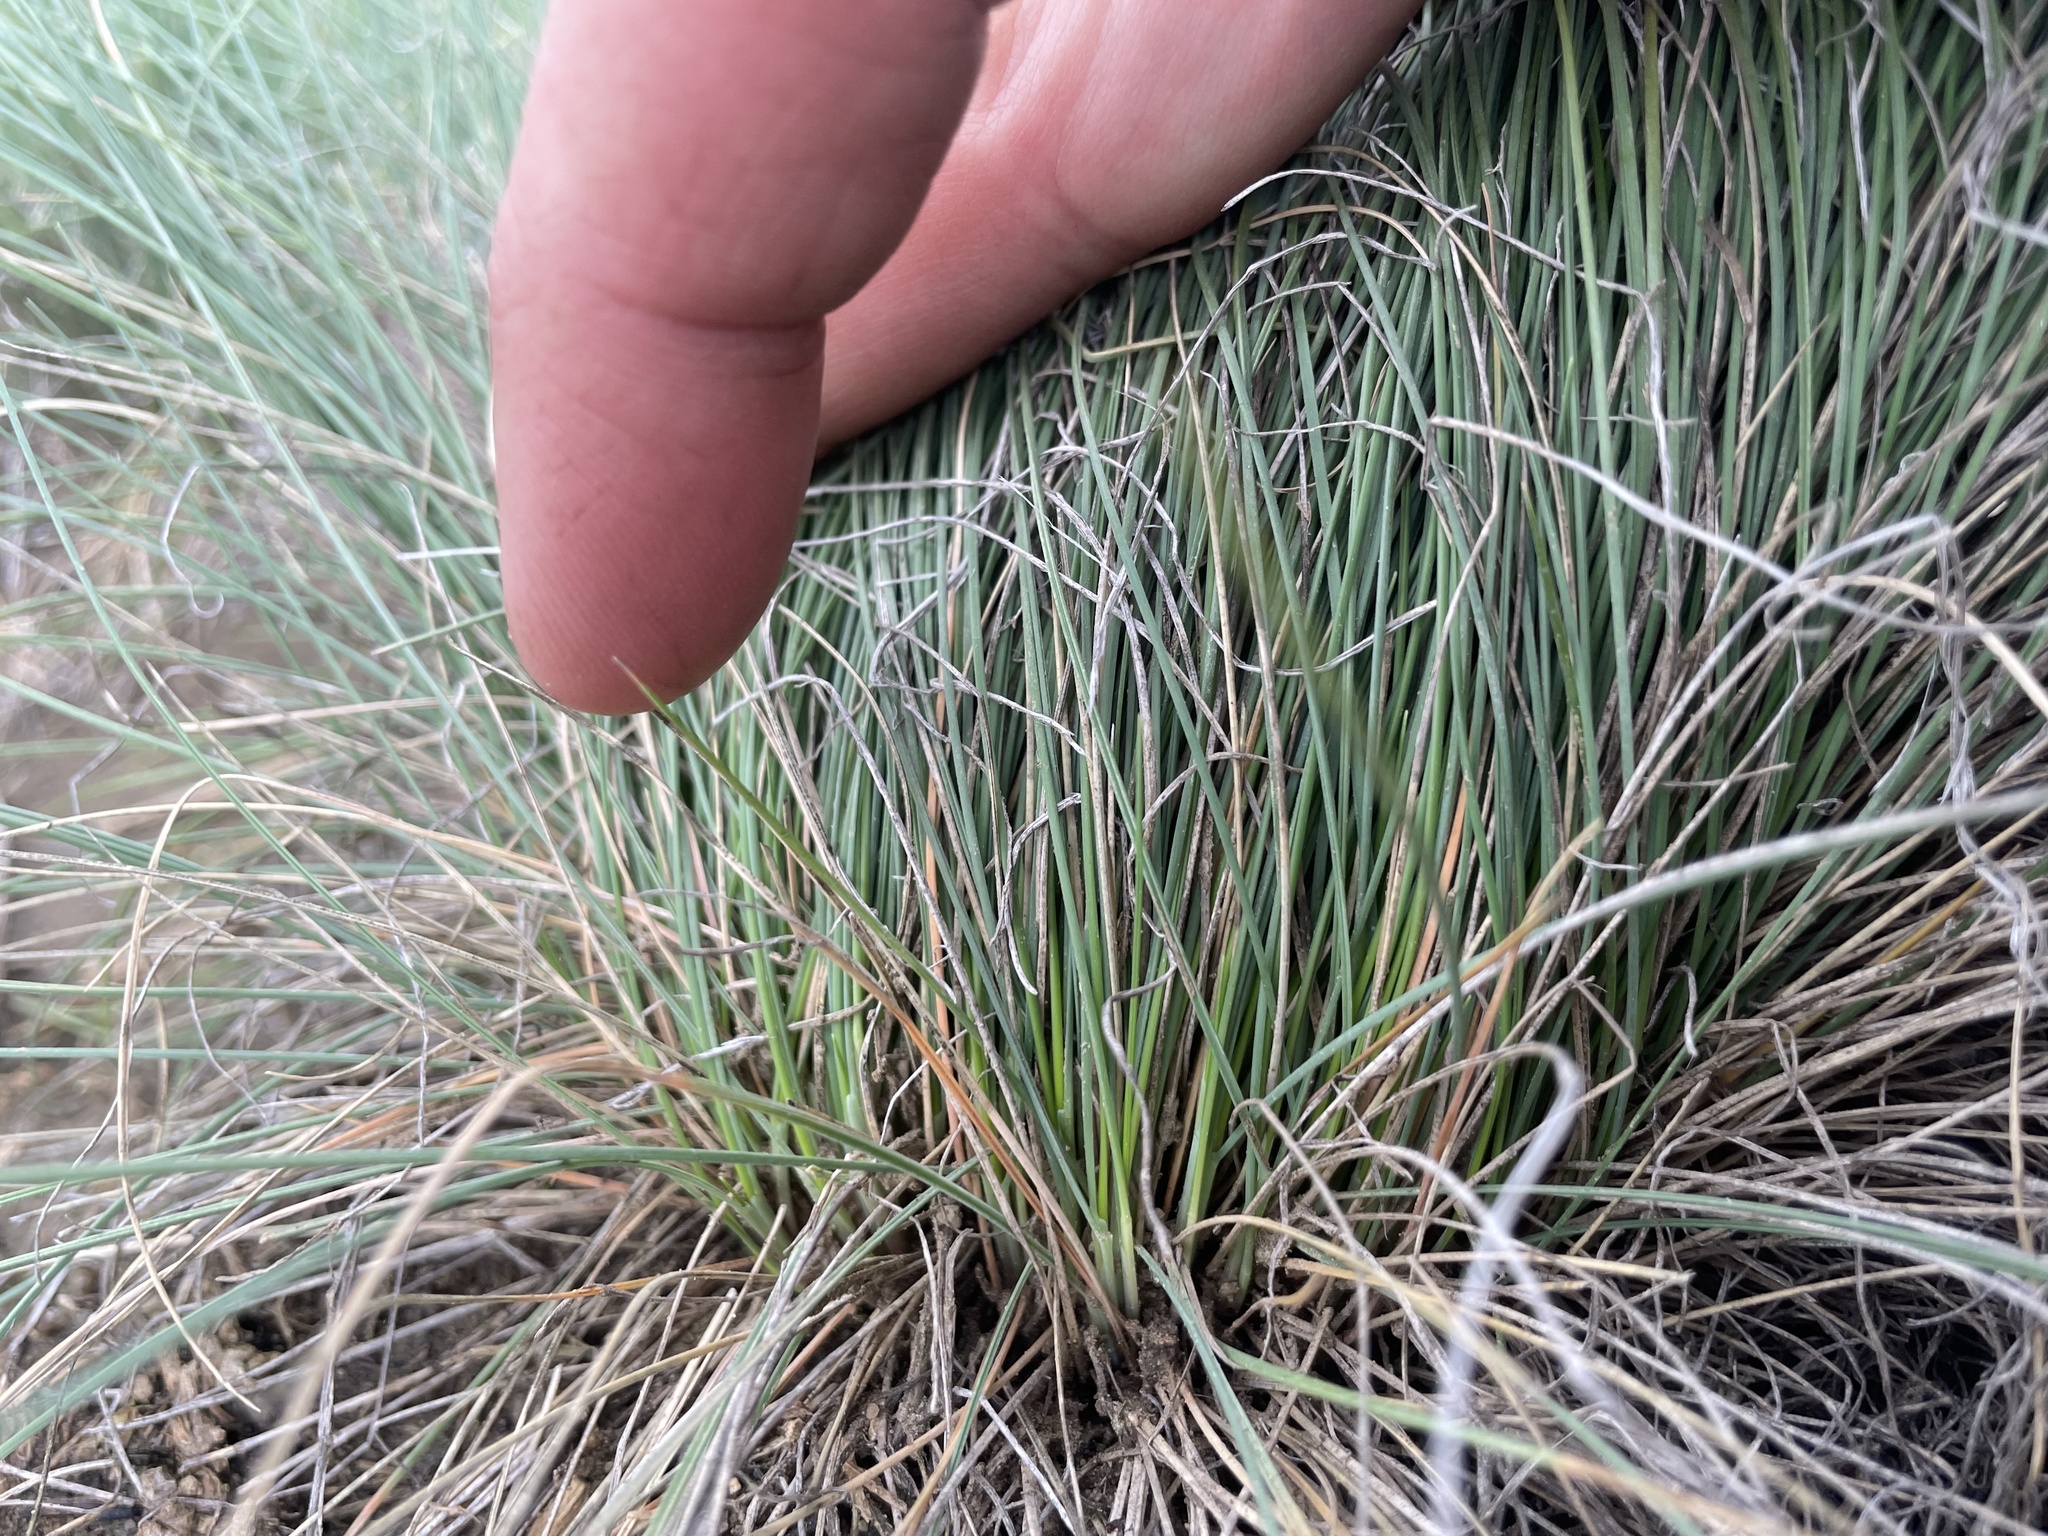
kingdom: Plantae
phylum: Tracheophyta
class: Liliopsida
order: Poales
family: Poaceae
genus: Festuca
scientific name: Festuca idahoensis
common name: Idaho fescue
